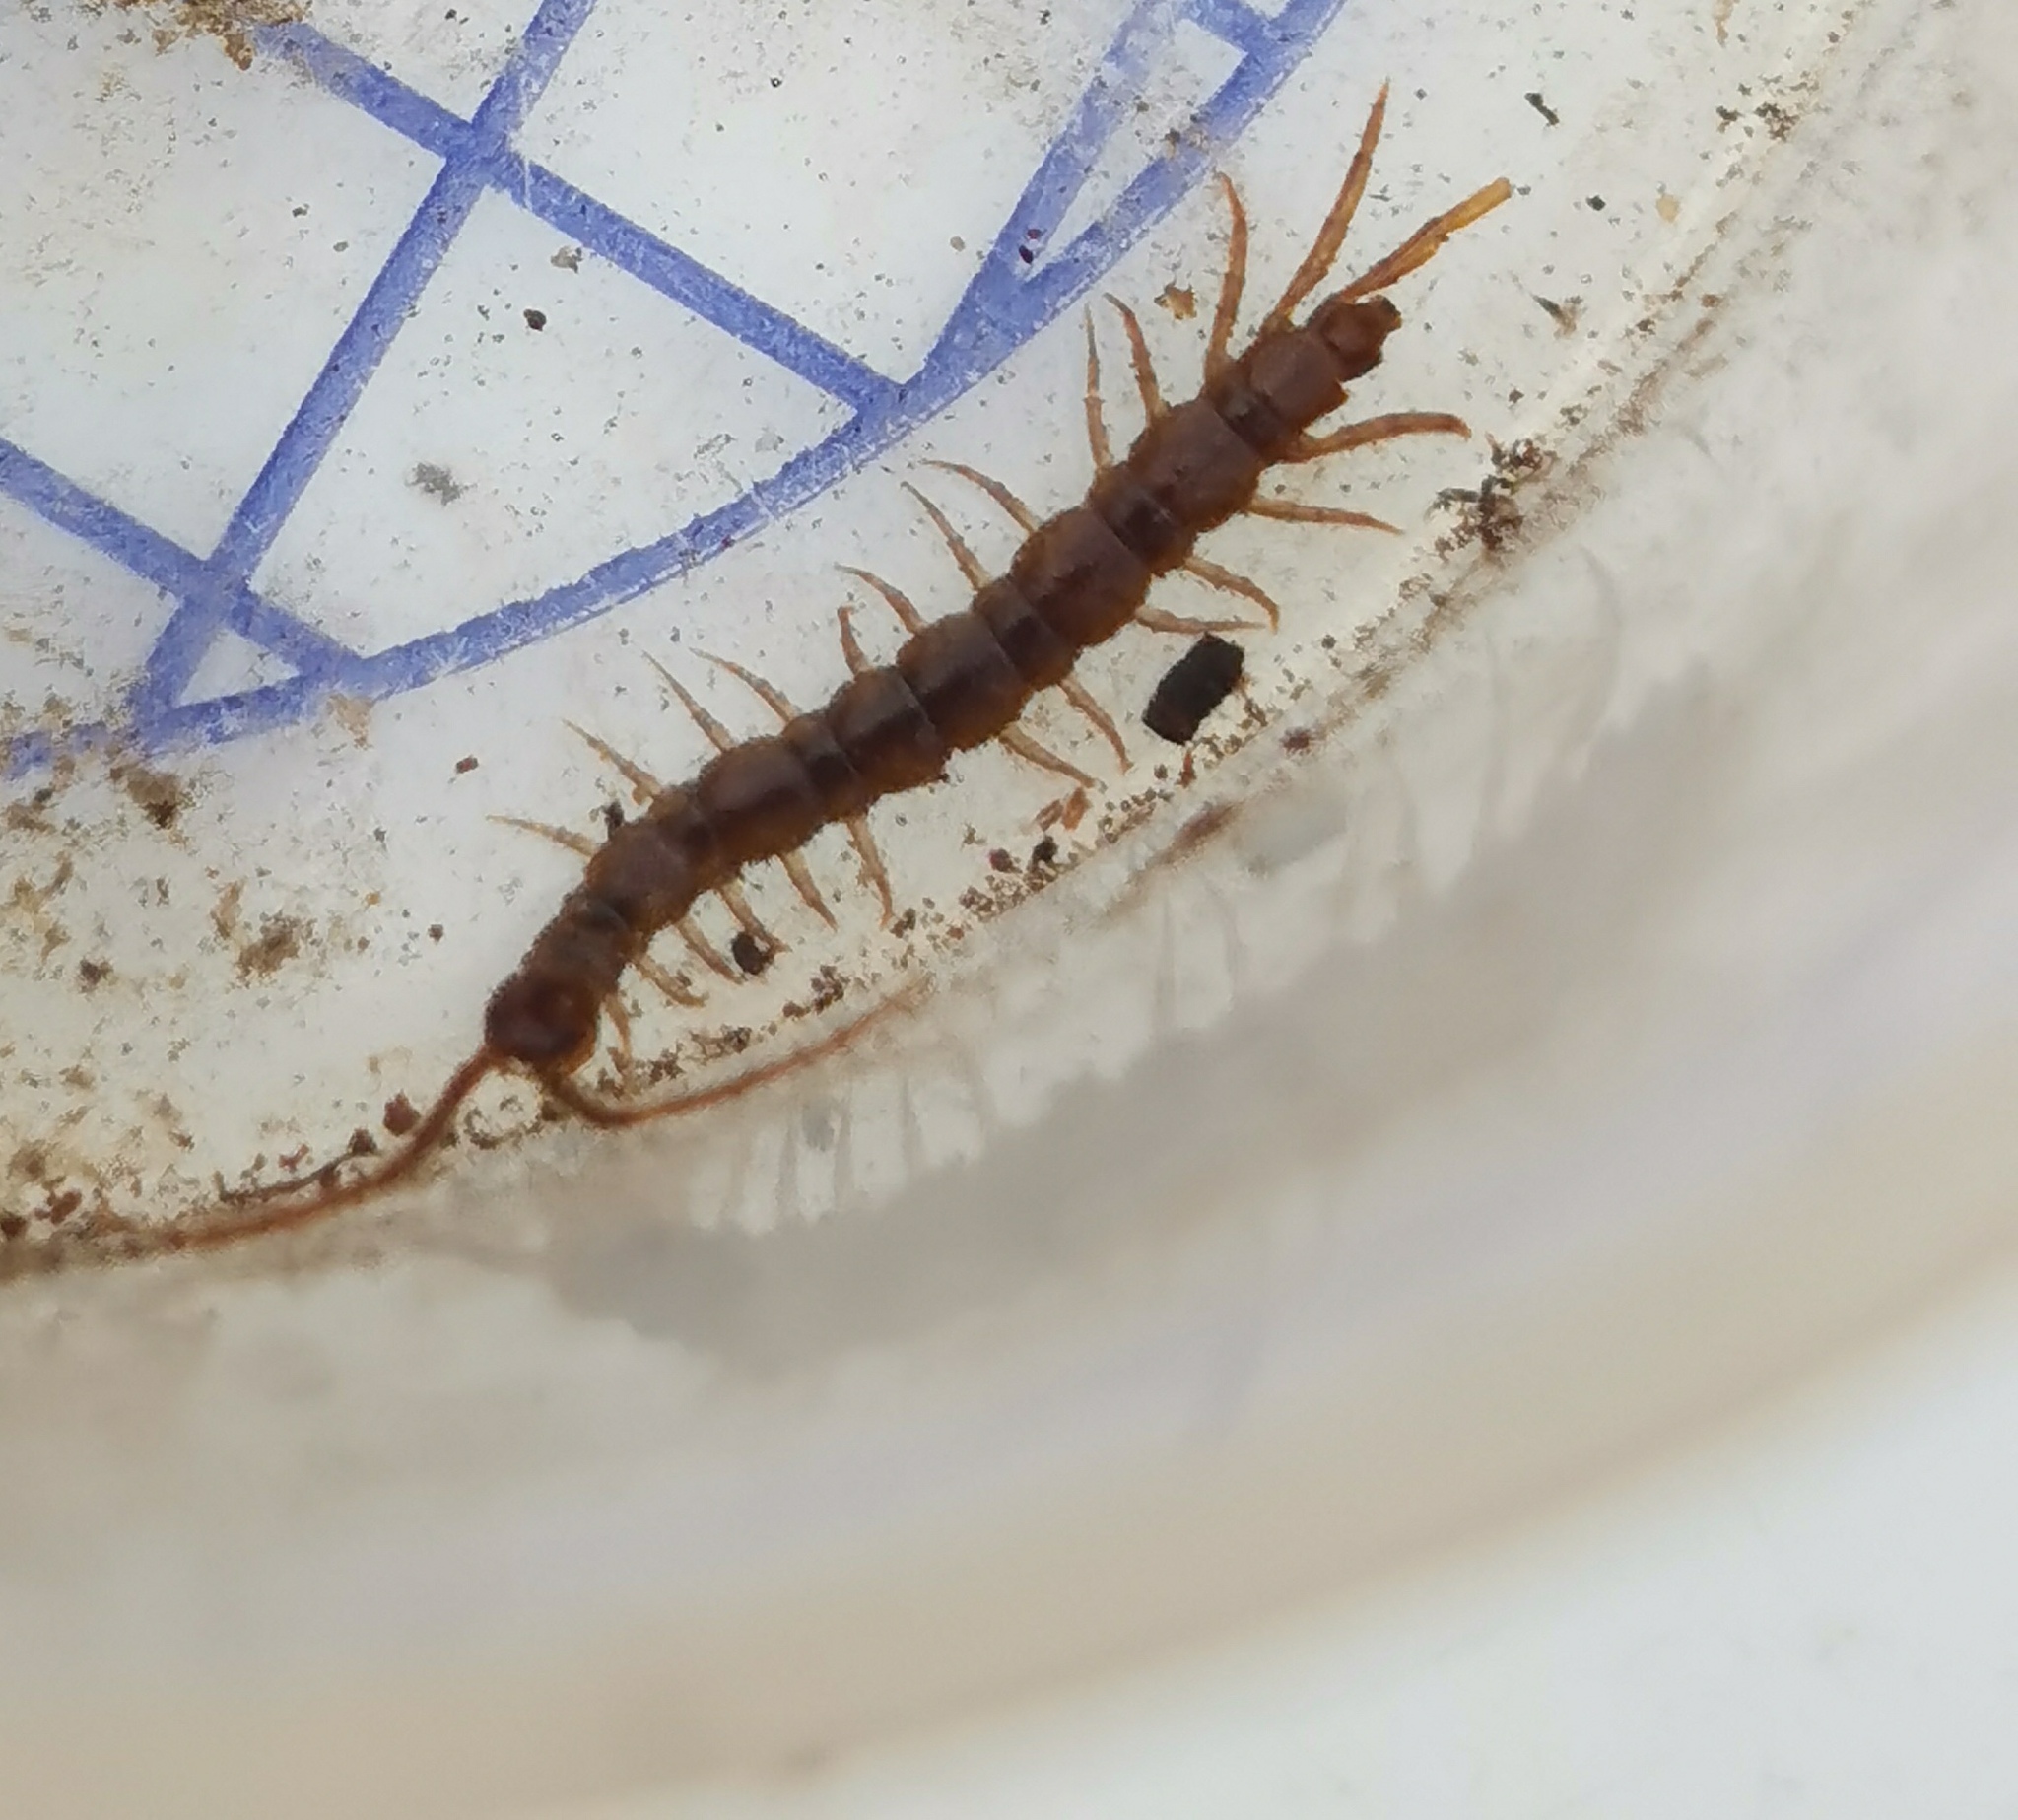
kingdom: Animalia
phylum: Arthropoda
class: Chilopoda
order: Lithobiomorpha
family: Lithobiidae
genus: Lithobius
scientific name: Lithobius calcaratus
